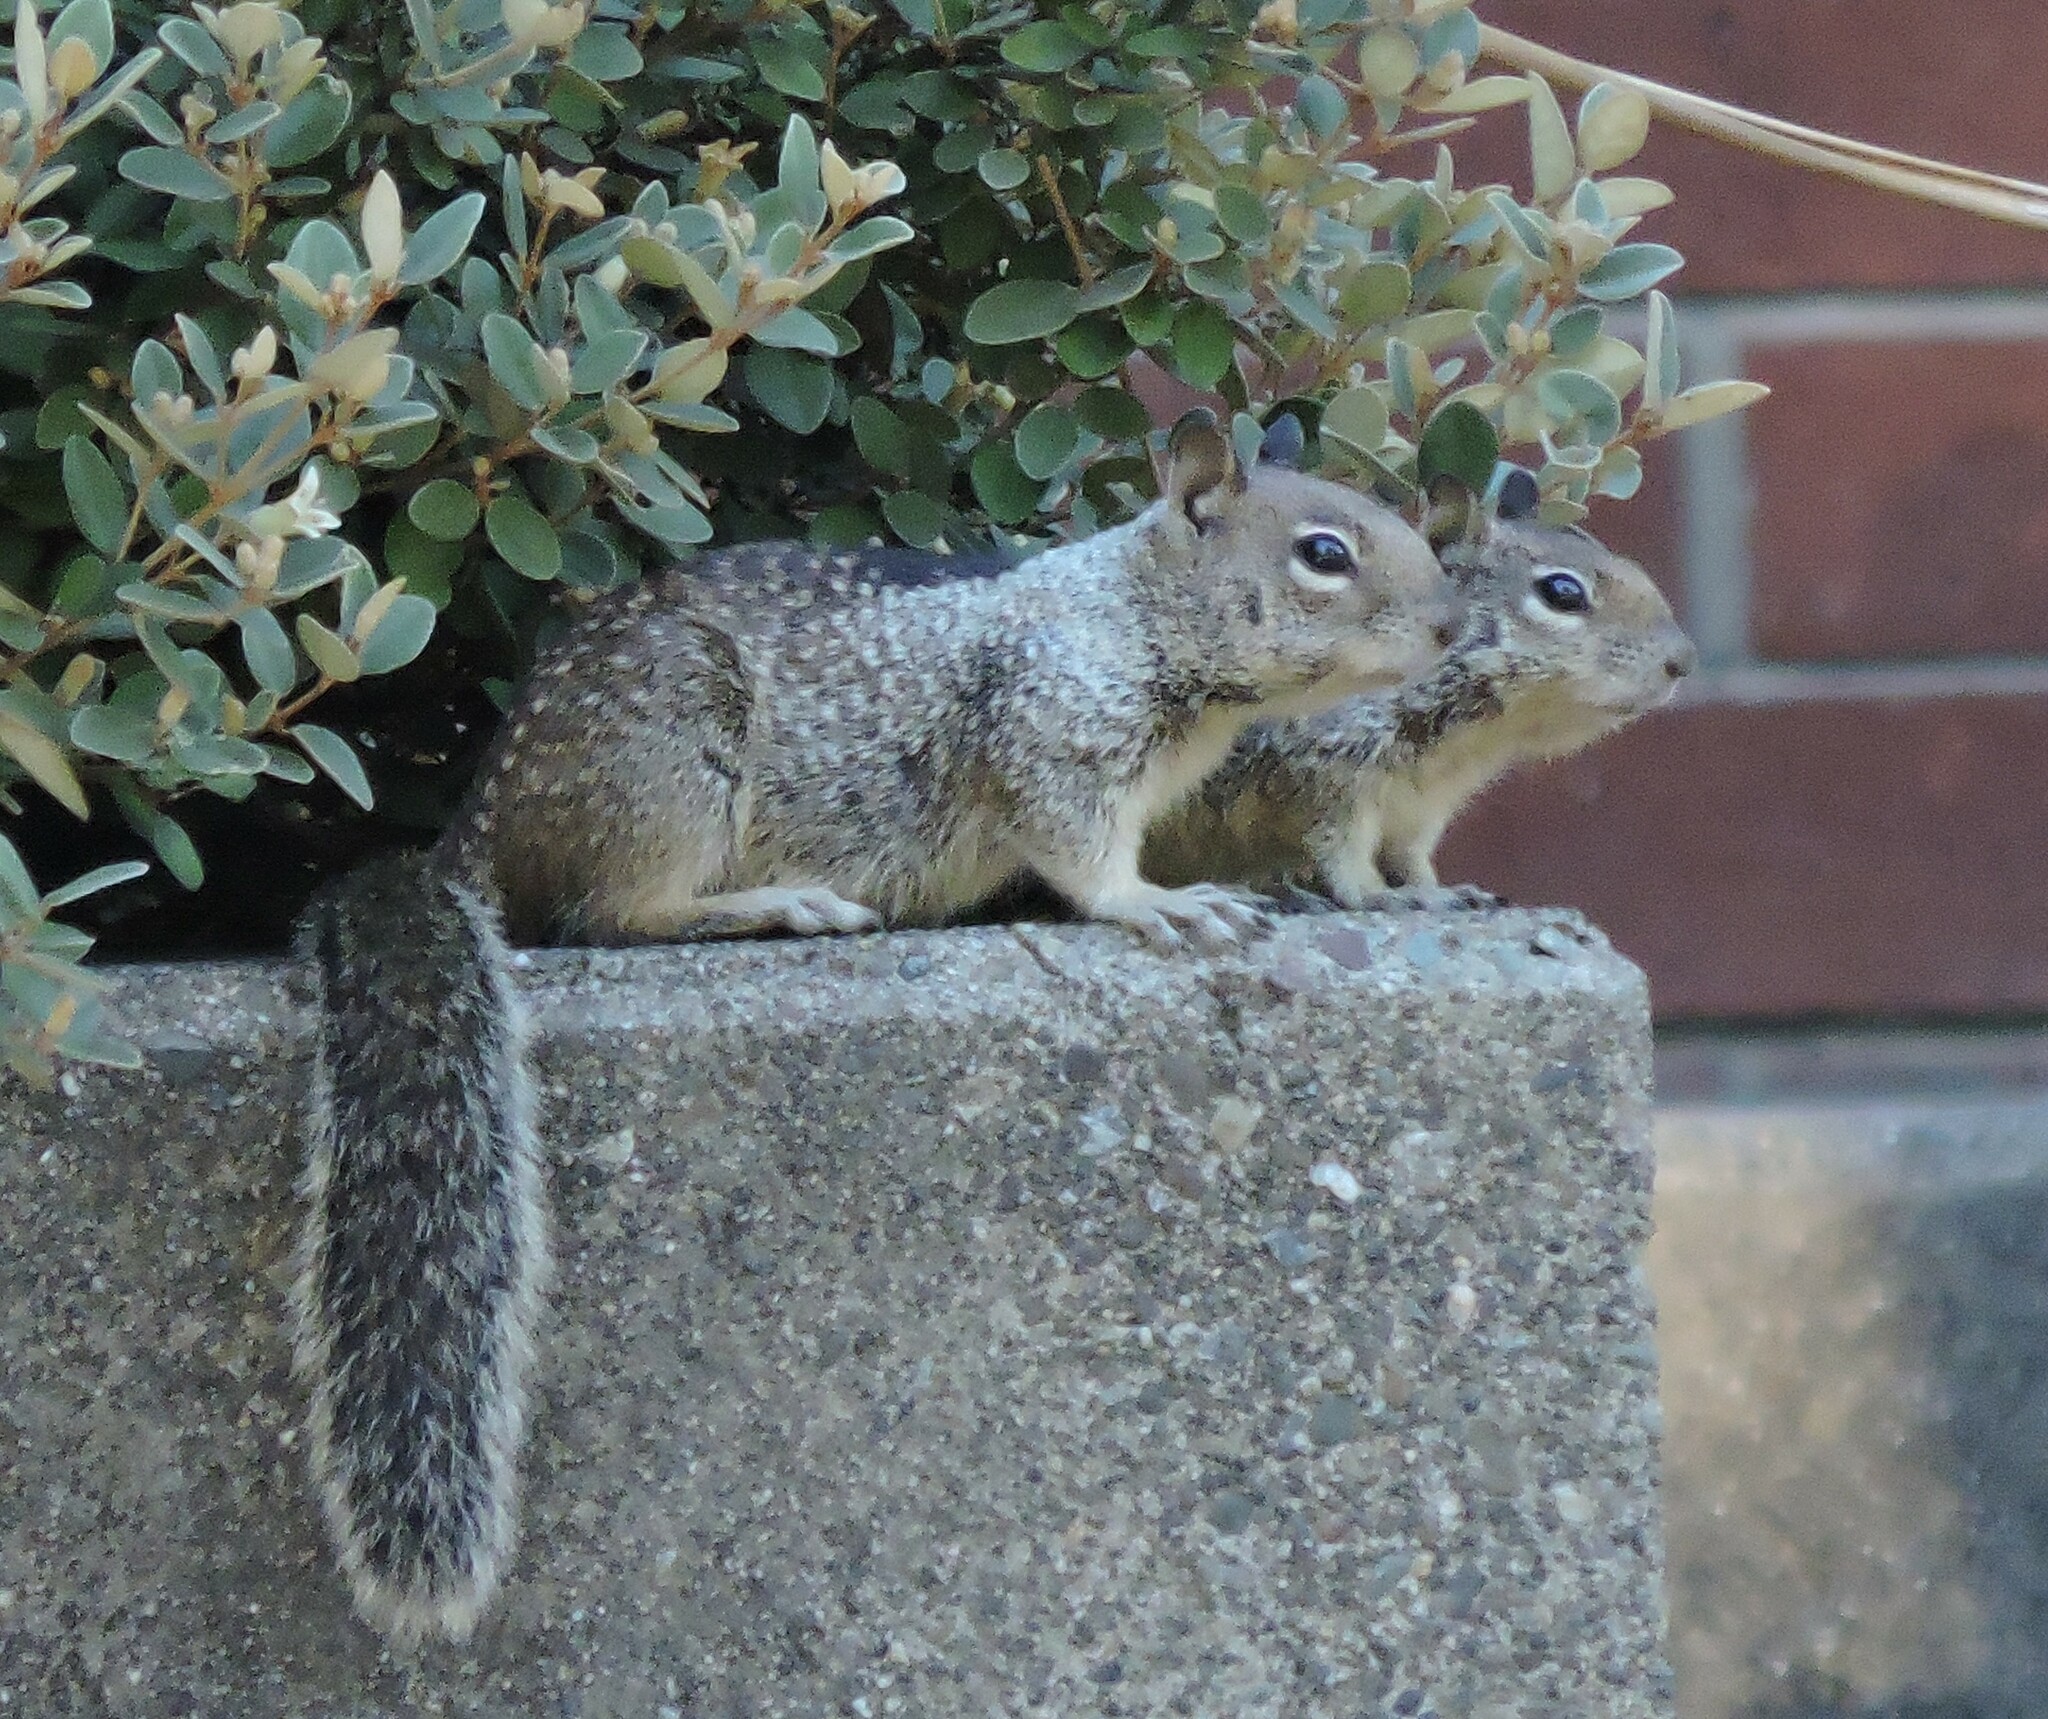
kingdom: Animalia
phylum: Chordata
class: Mammalia
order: Rodentia
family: Sciuridae
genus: Otospermophilus
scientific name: Otospermophilus beecheyi
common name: California ground squirrel
